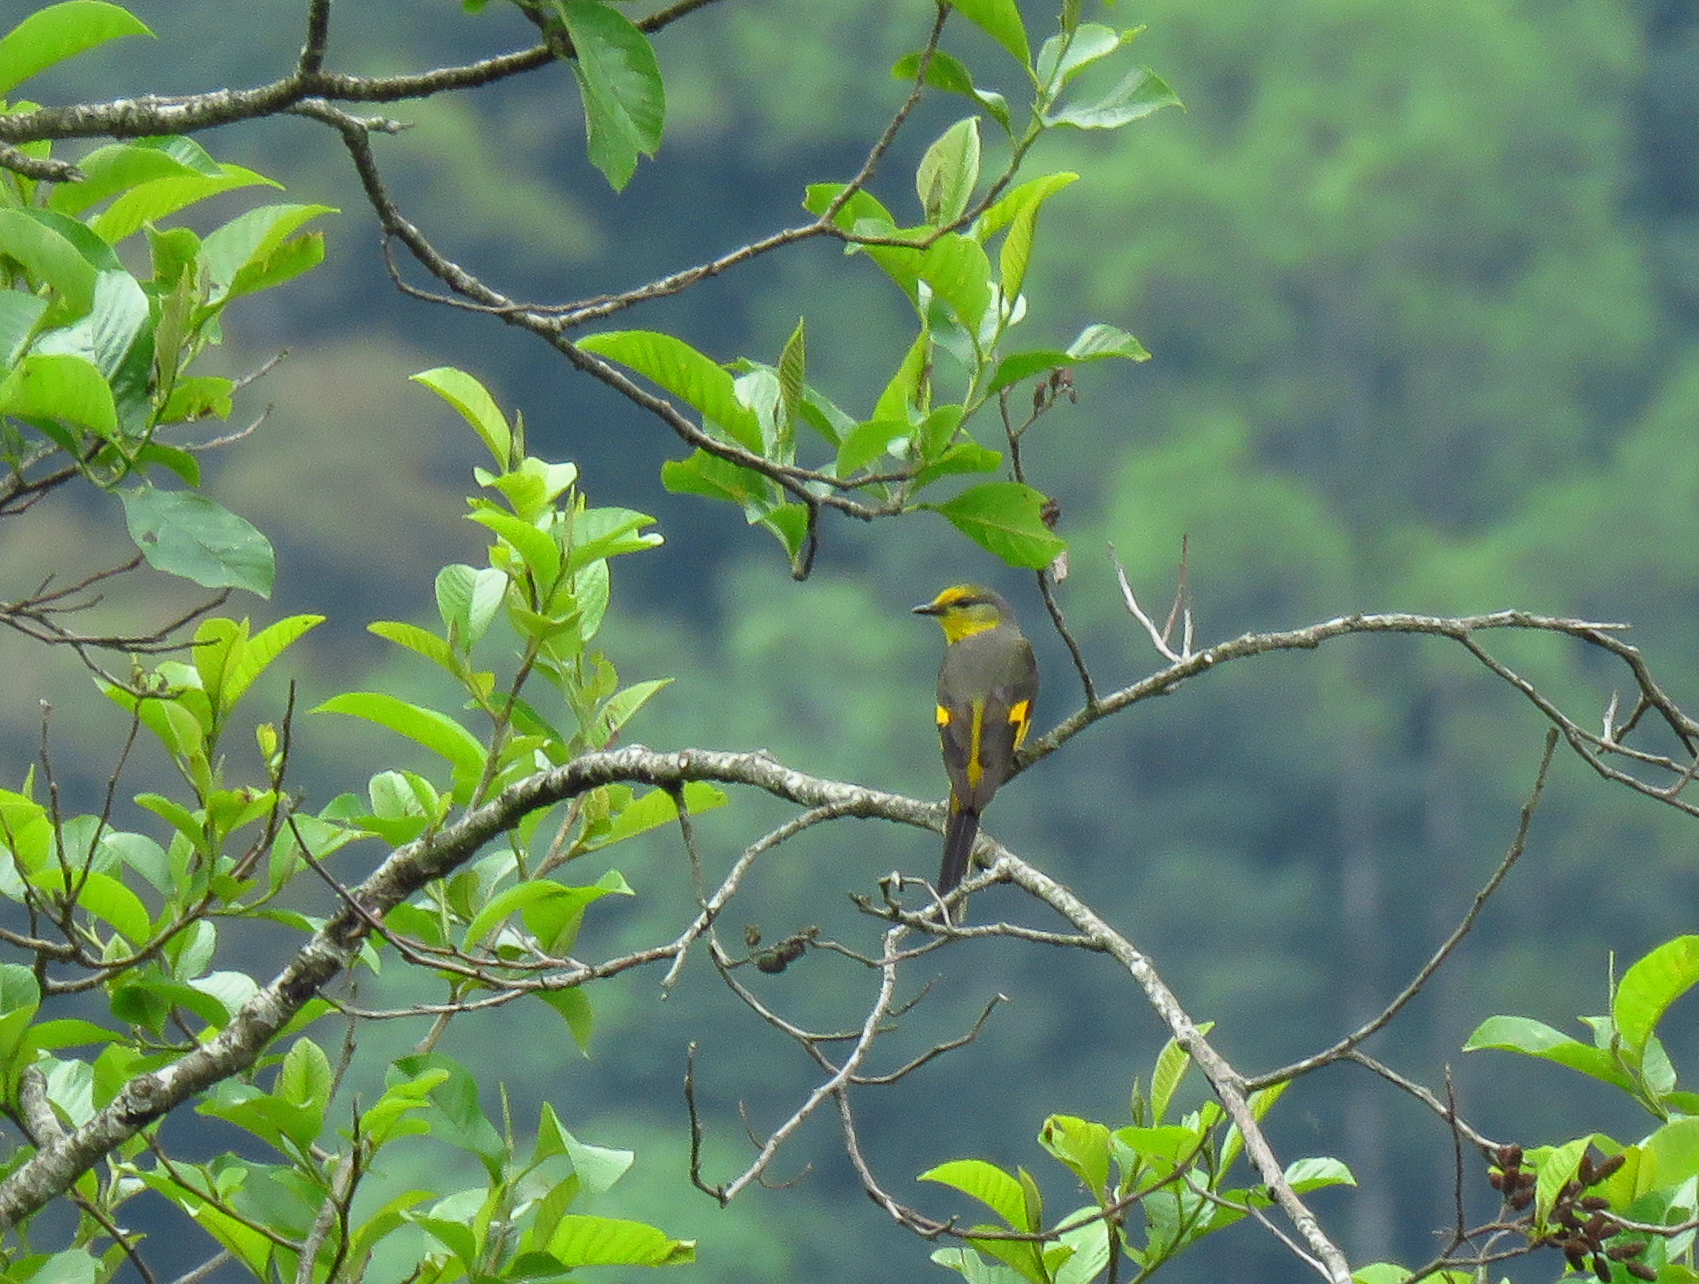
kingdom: Animalia
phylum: Chordata
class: Aves
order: Passeriformes
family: Campephagidae
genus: Pericrocotus
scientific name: Pericrocotus brevirostris
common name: Short-billed minivet
